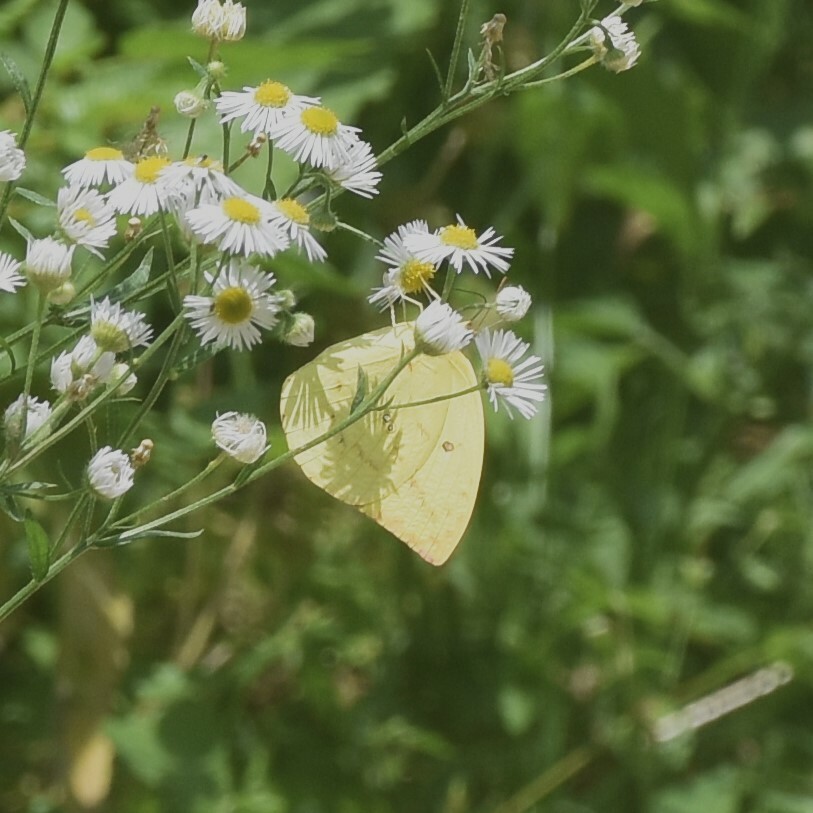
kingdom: Animalia
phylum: Arthropoda
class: Insecta
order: Lepidoptera
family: Pieridae
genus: Catopsilia
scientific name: Catopsilia pomona
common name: Common emigrant
